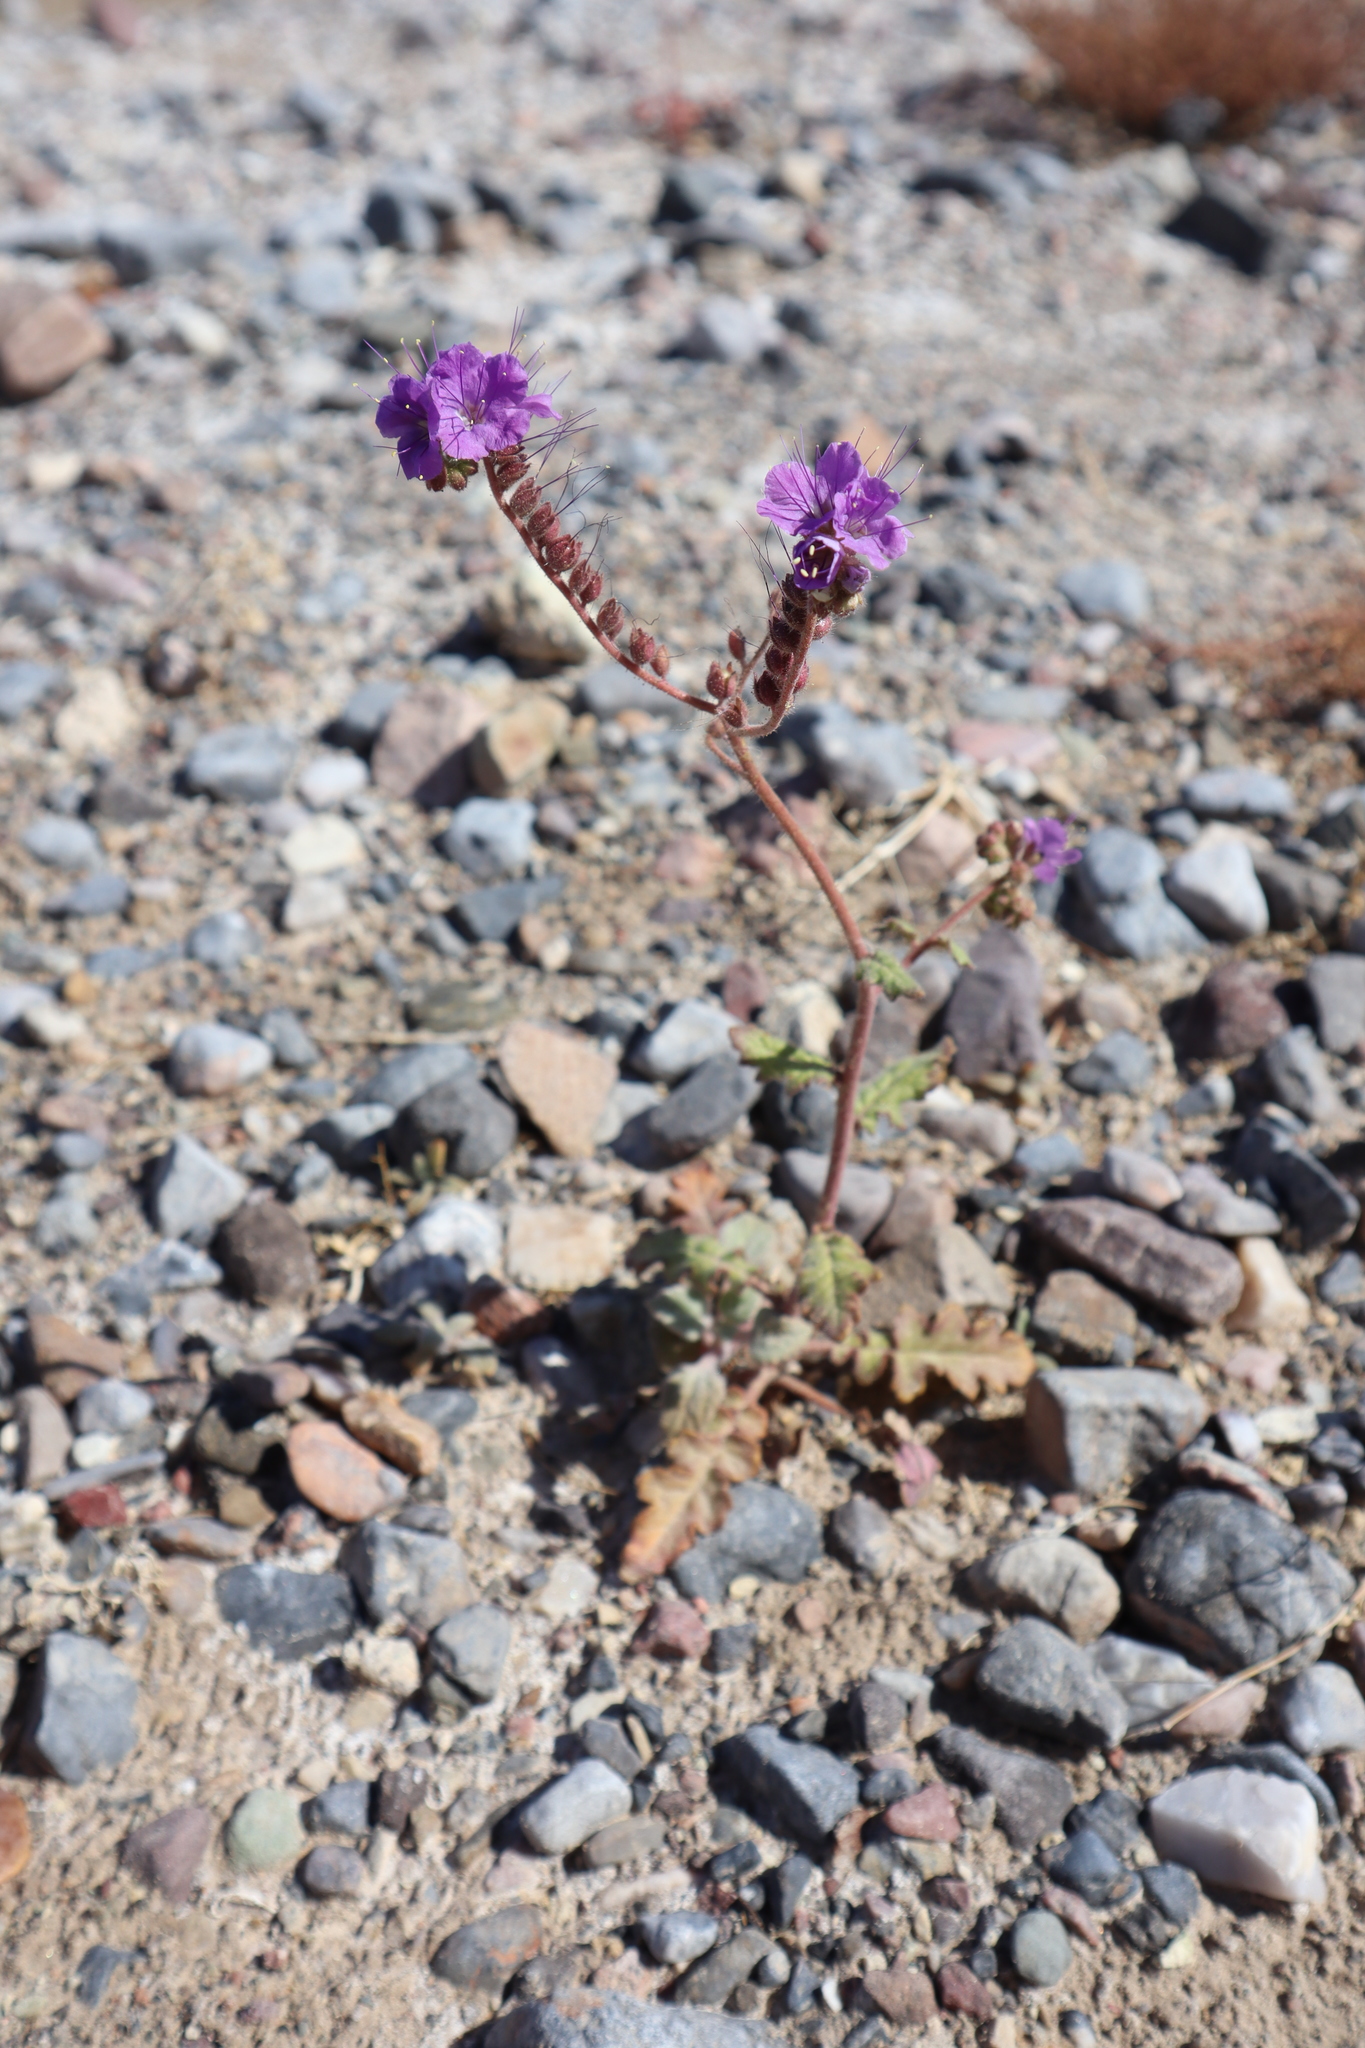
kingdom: Plantae
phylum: Tracheophyta
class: Magnoliopsida
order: Boraginales
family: Hydrophyllaceae
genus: Phacelia
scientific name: Phacelia crenulata
